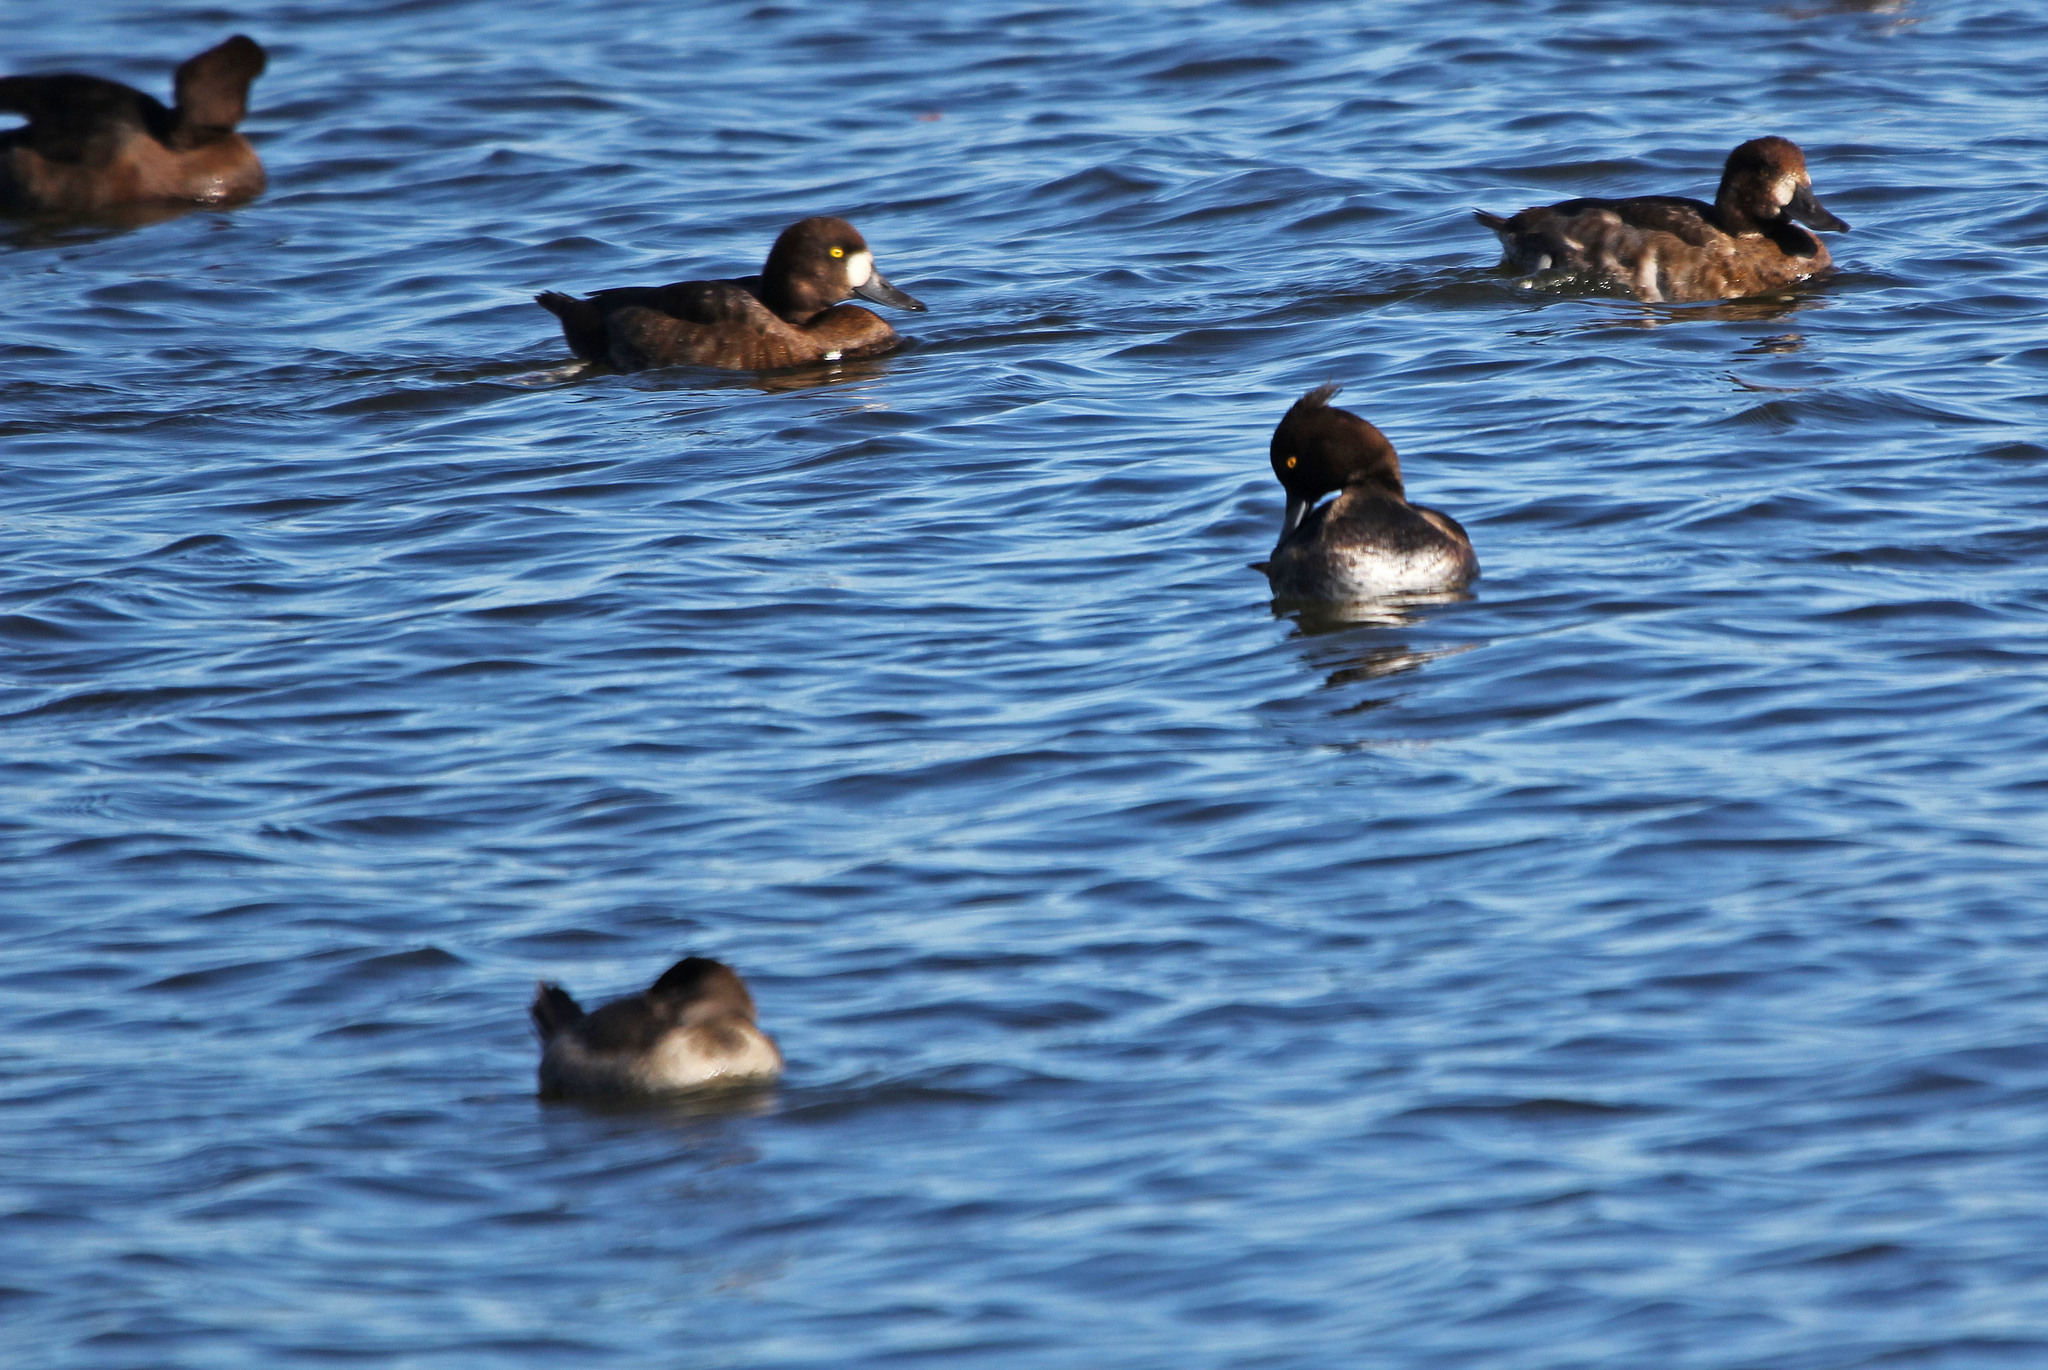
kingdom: Animalia
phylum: Chordata
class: Aves
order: Anseriformes
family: Anatidae
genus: Aythya
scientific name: Aythya fuligula
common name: Tufted duck
